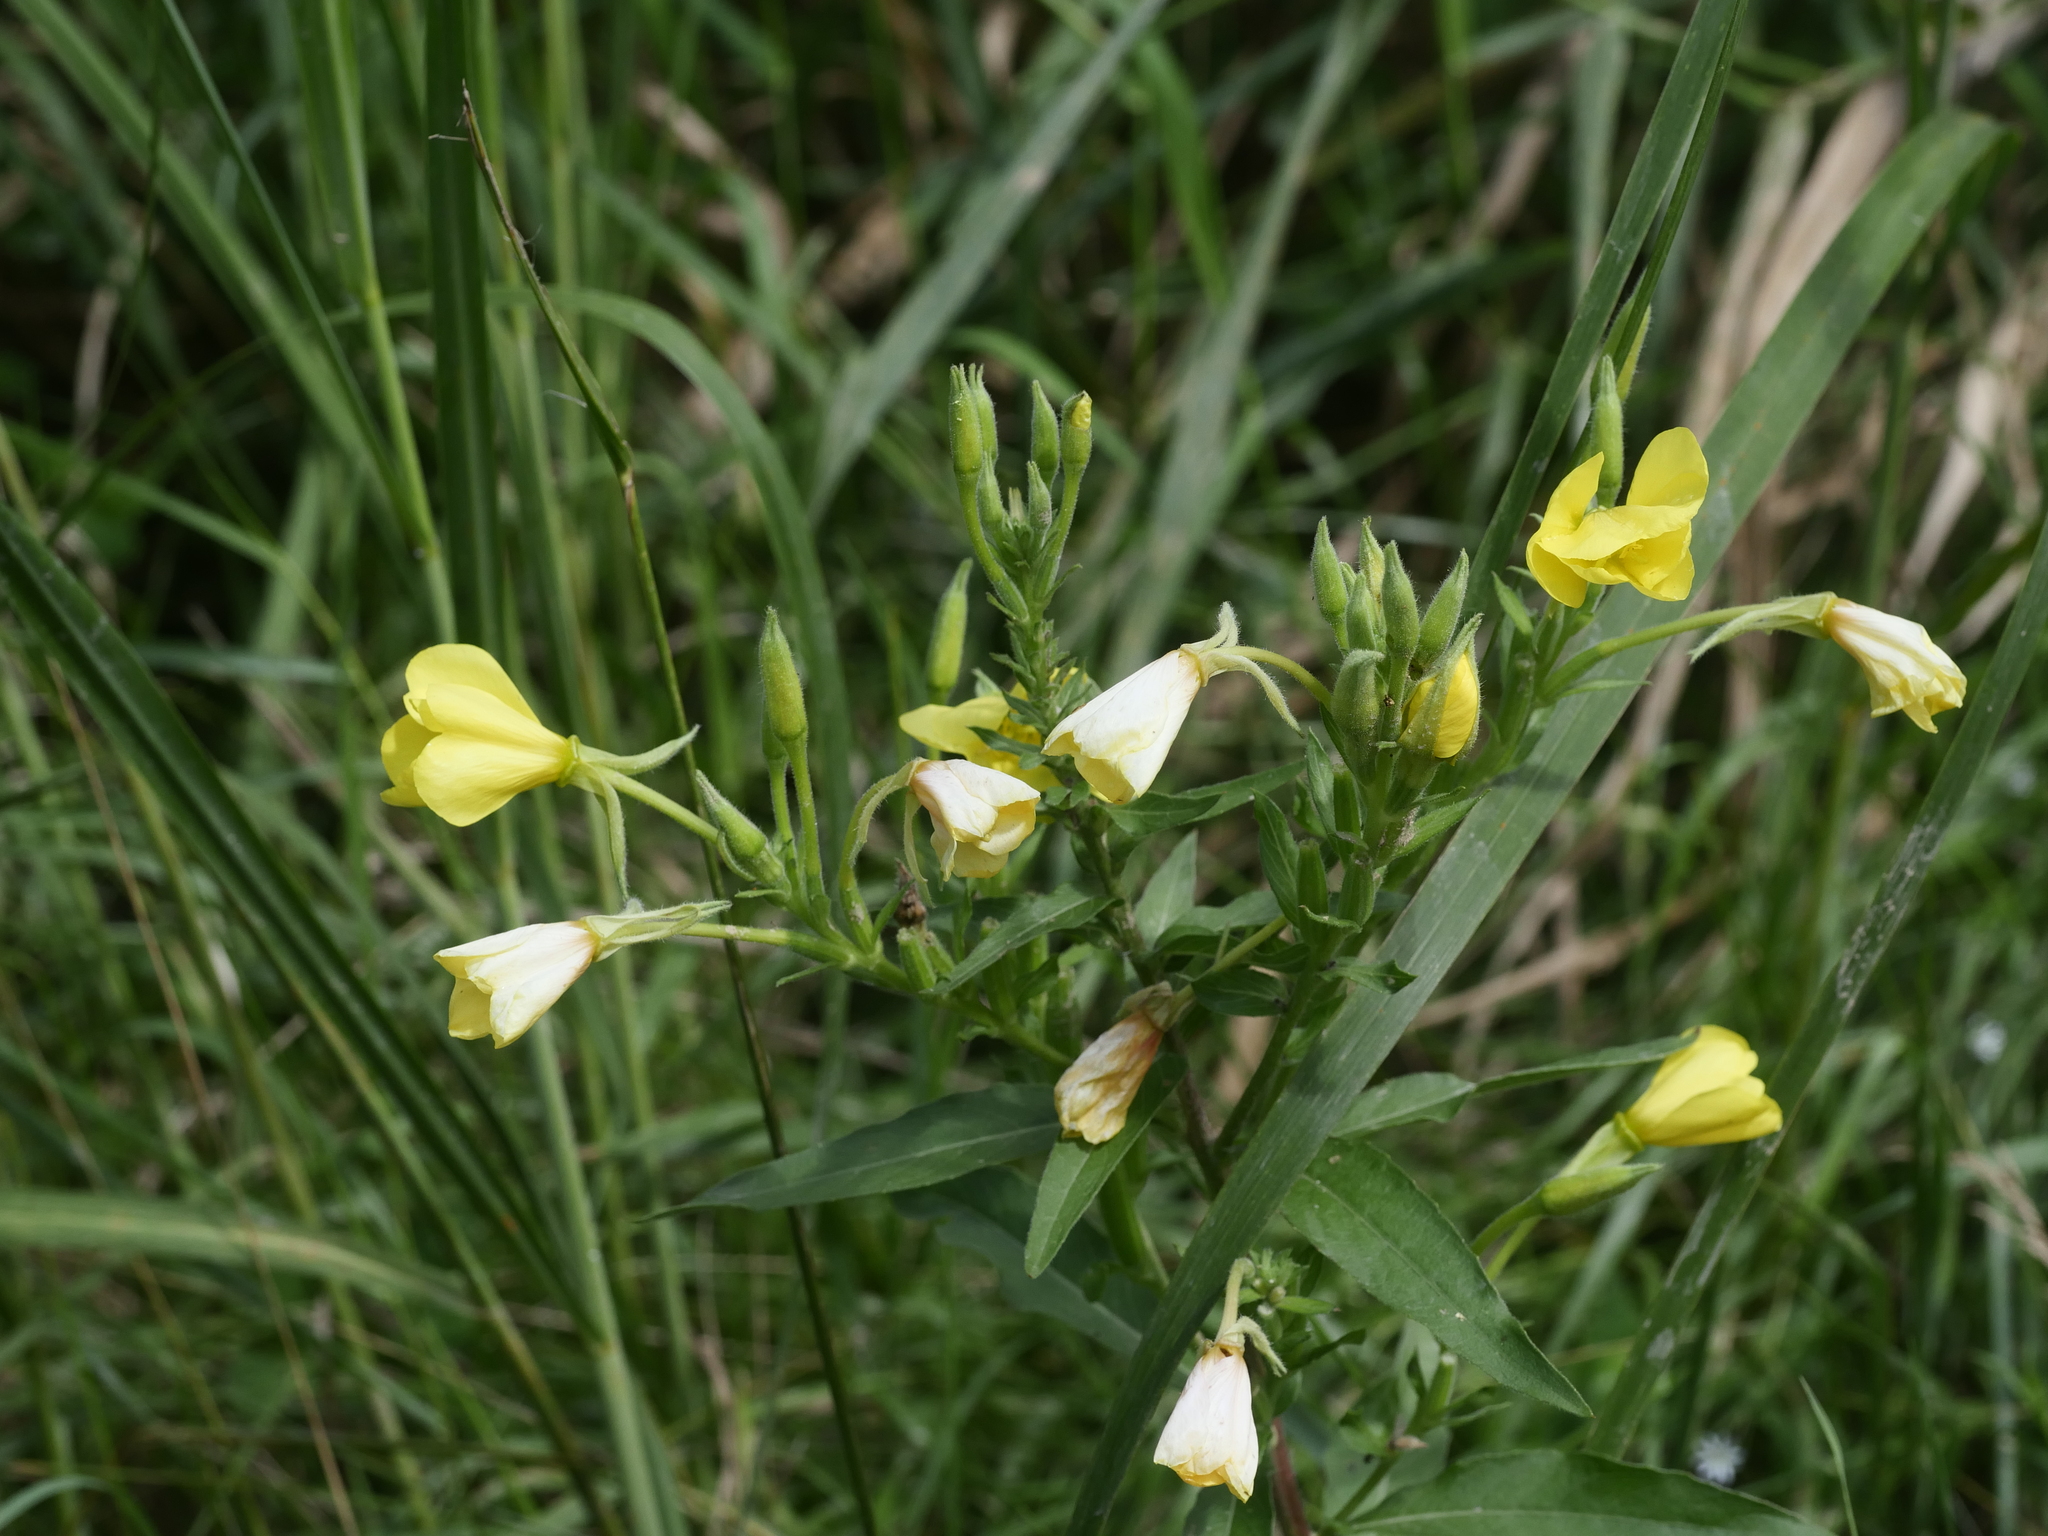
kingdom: Plantae
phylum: Tracheophyta
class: Magnoliopsida
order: Myrtales
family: Onagraceae
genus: Oenothera
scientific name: Oenothera biennis
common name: Common evening-primrose
